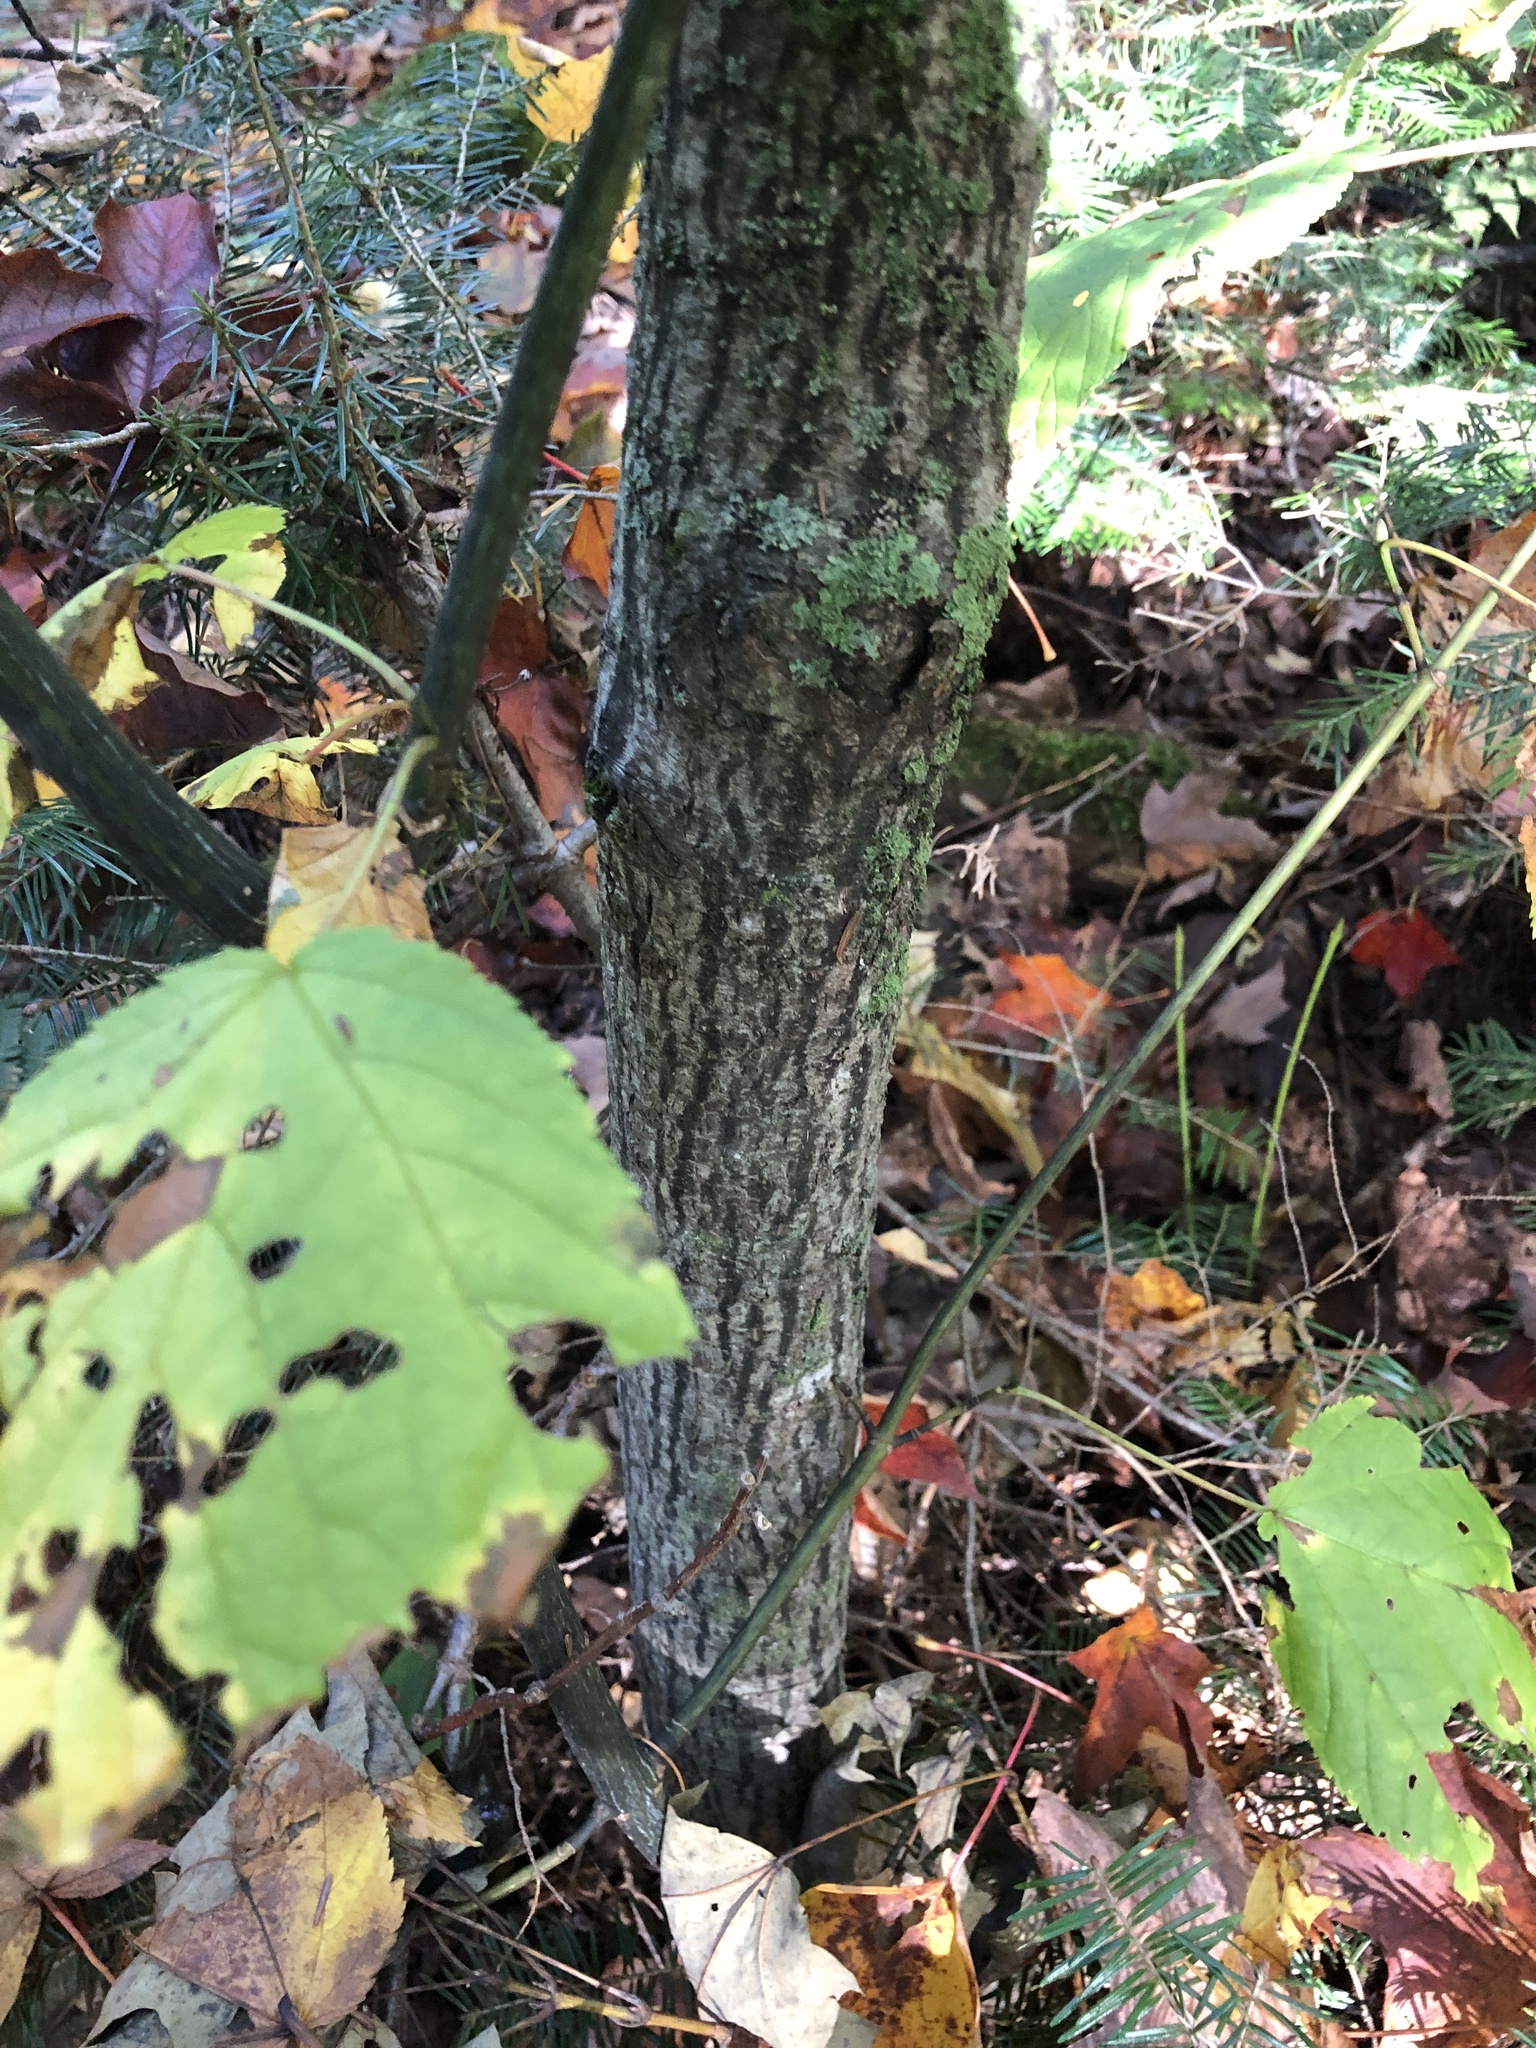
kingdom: Plantae
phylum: Tracheophyta
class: Magnoliopsida
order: Sapindales
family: Sapindaceae
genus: Acer
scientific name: Acer pensylvanicum
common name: Moosewood
